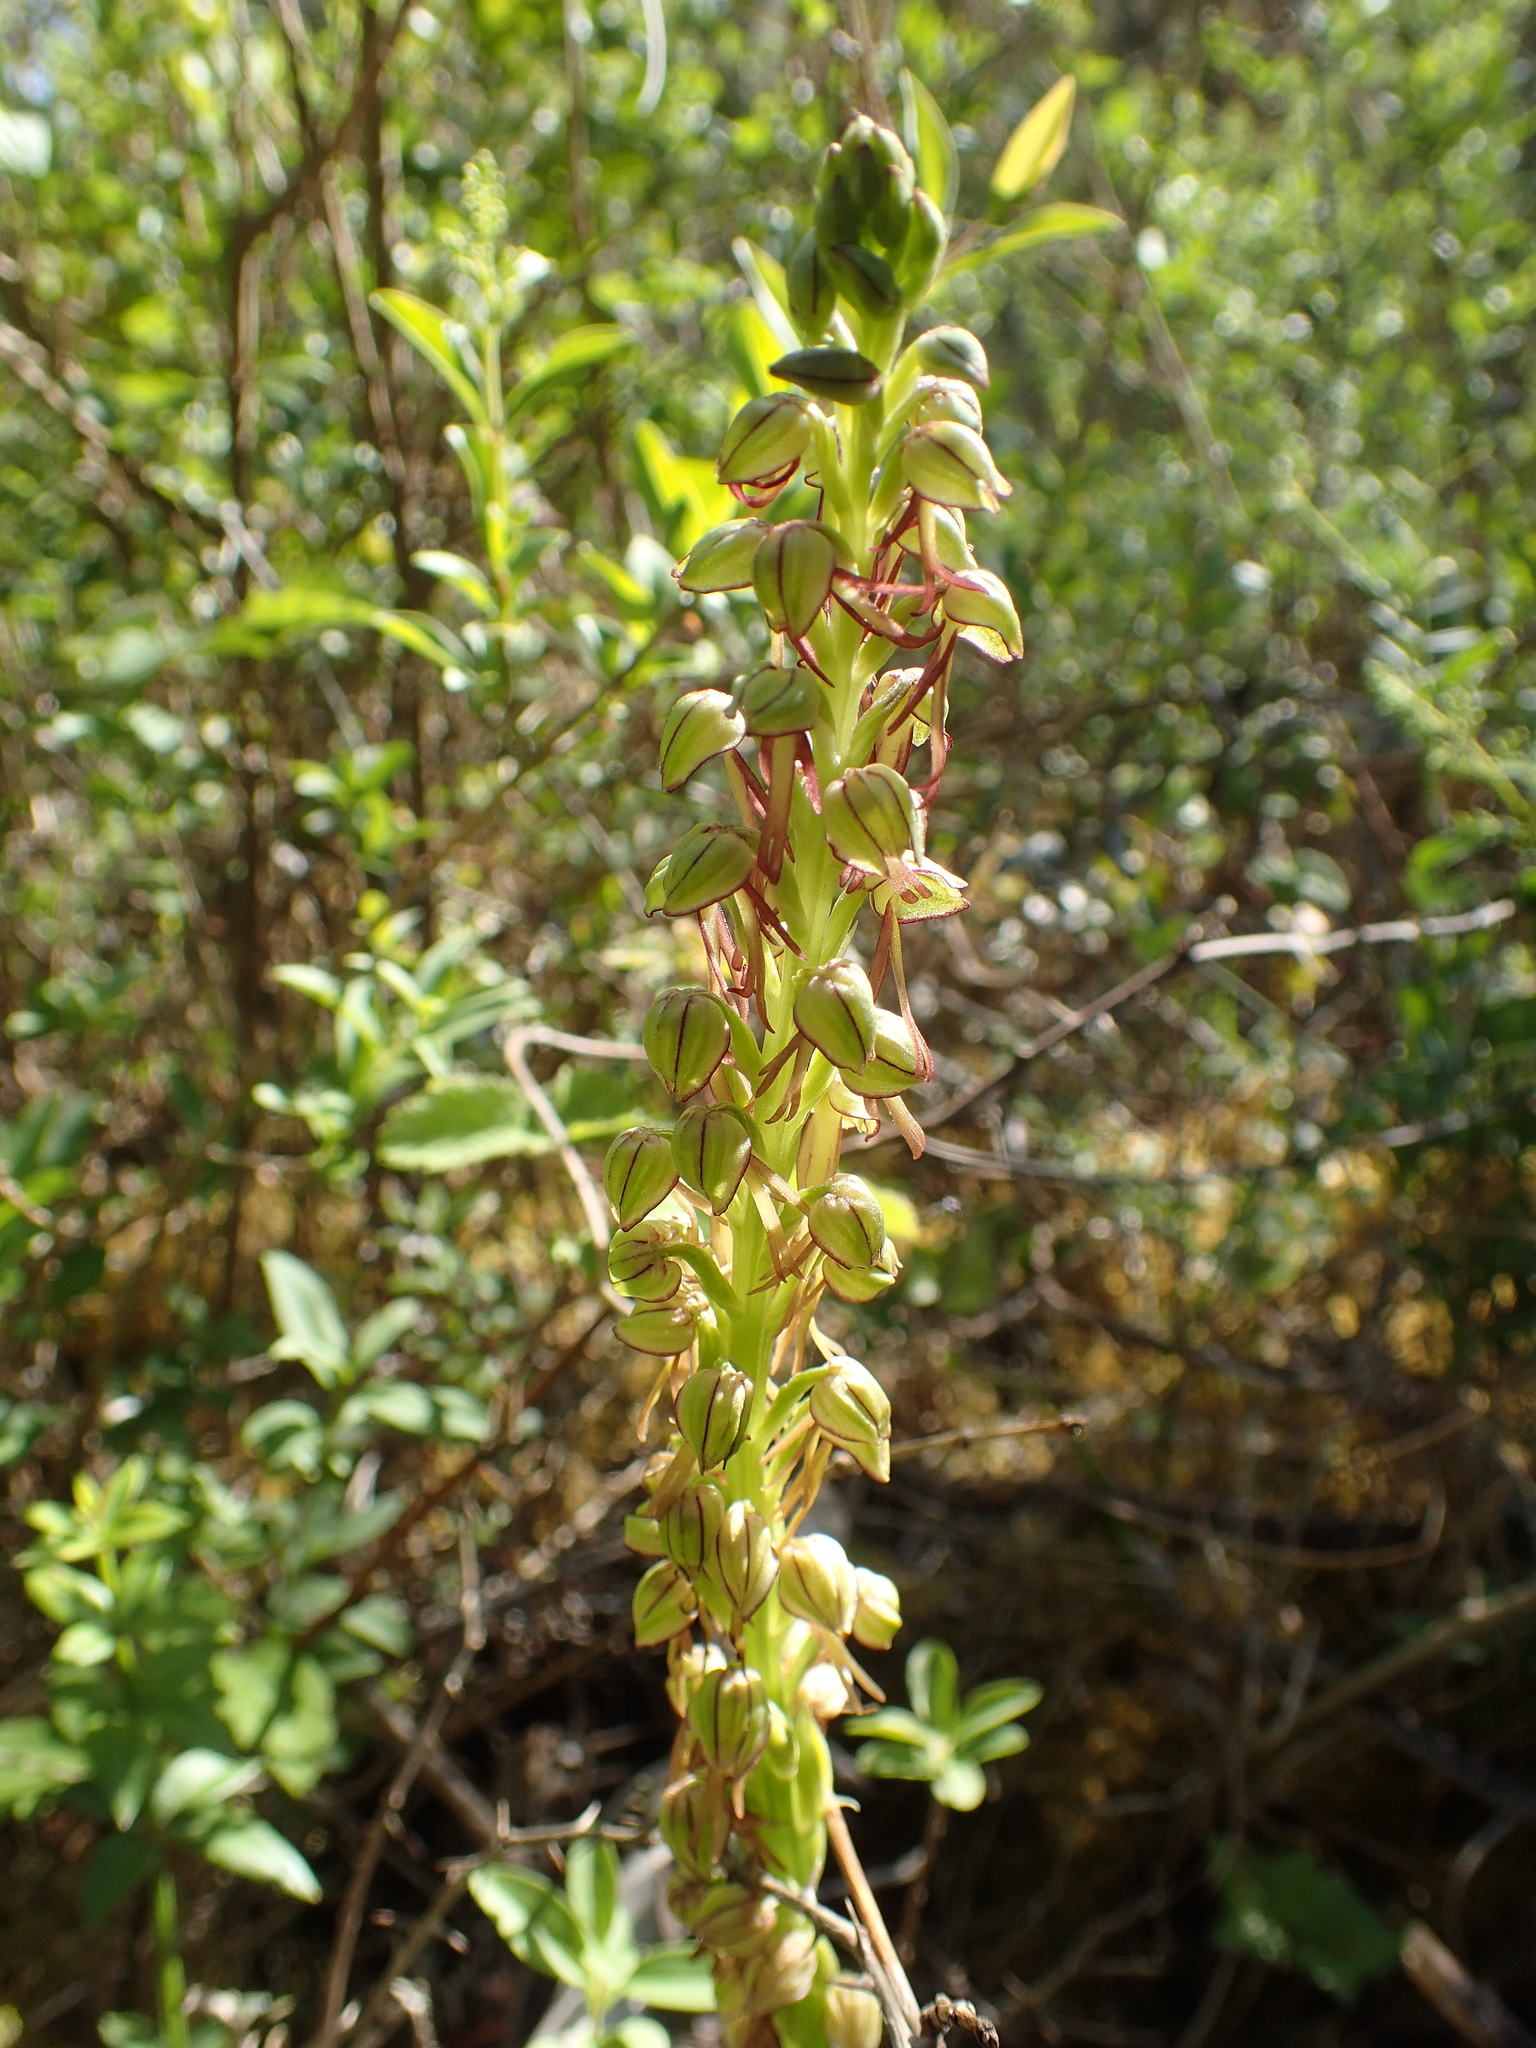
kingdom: Plantae
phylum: Tracheophyta
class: Liliopsida
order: Asparagales
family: Orchidaceae
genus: Orchis
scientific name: Orchis anthropophora
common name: Man orchid
